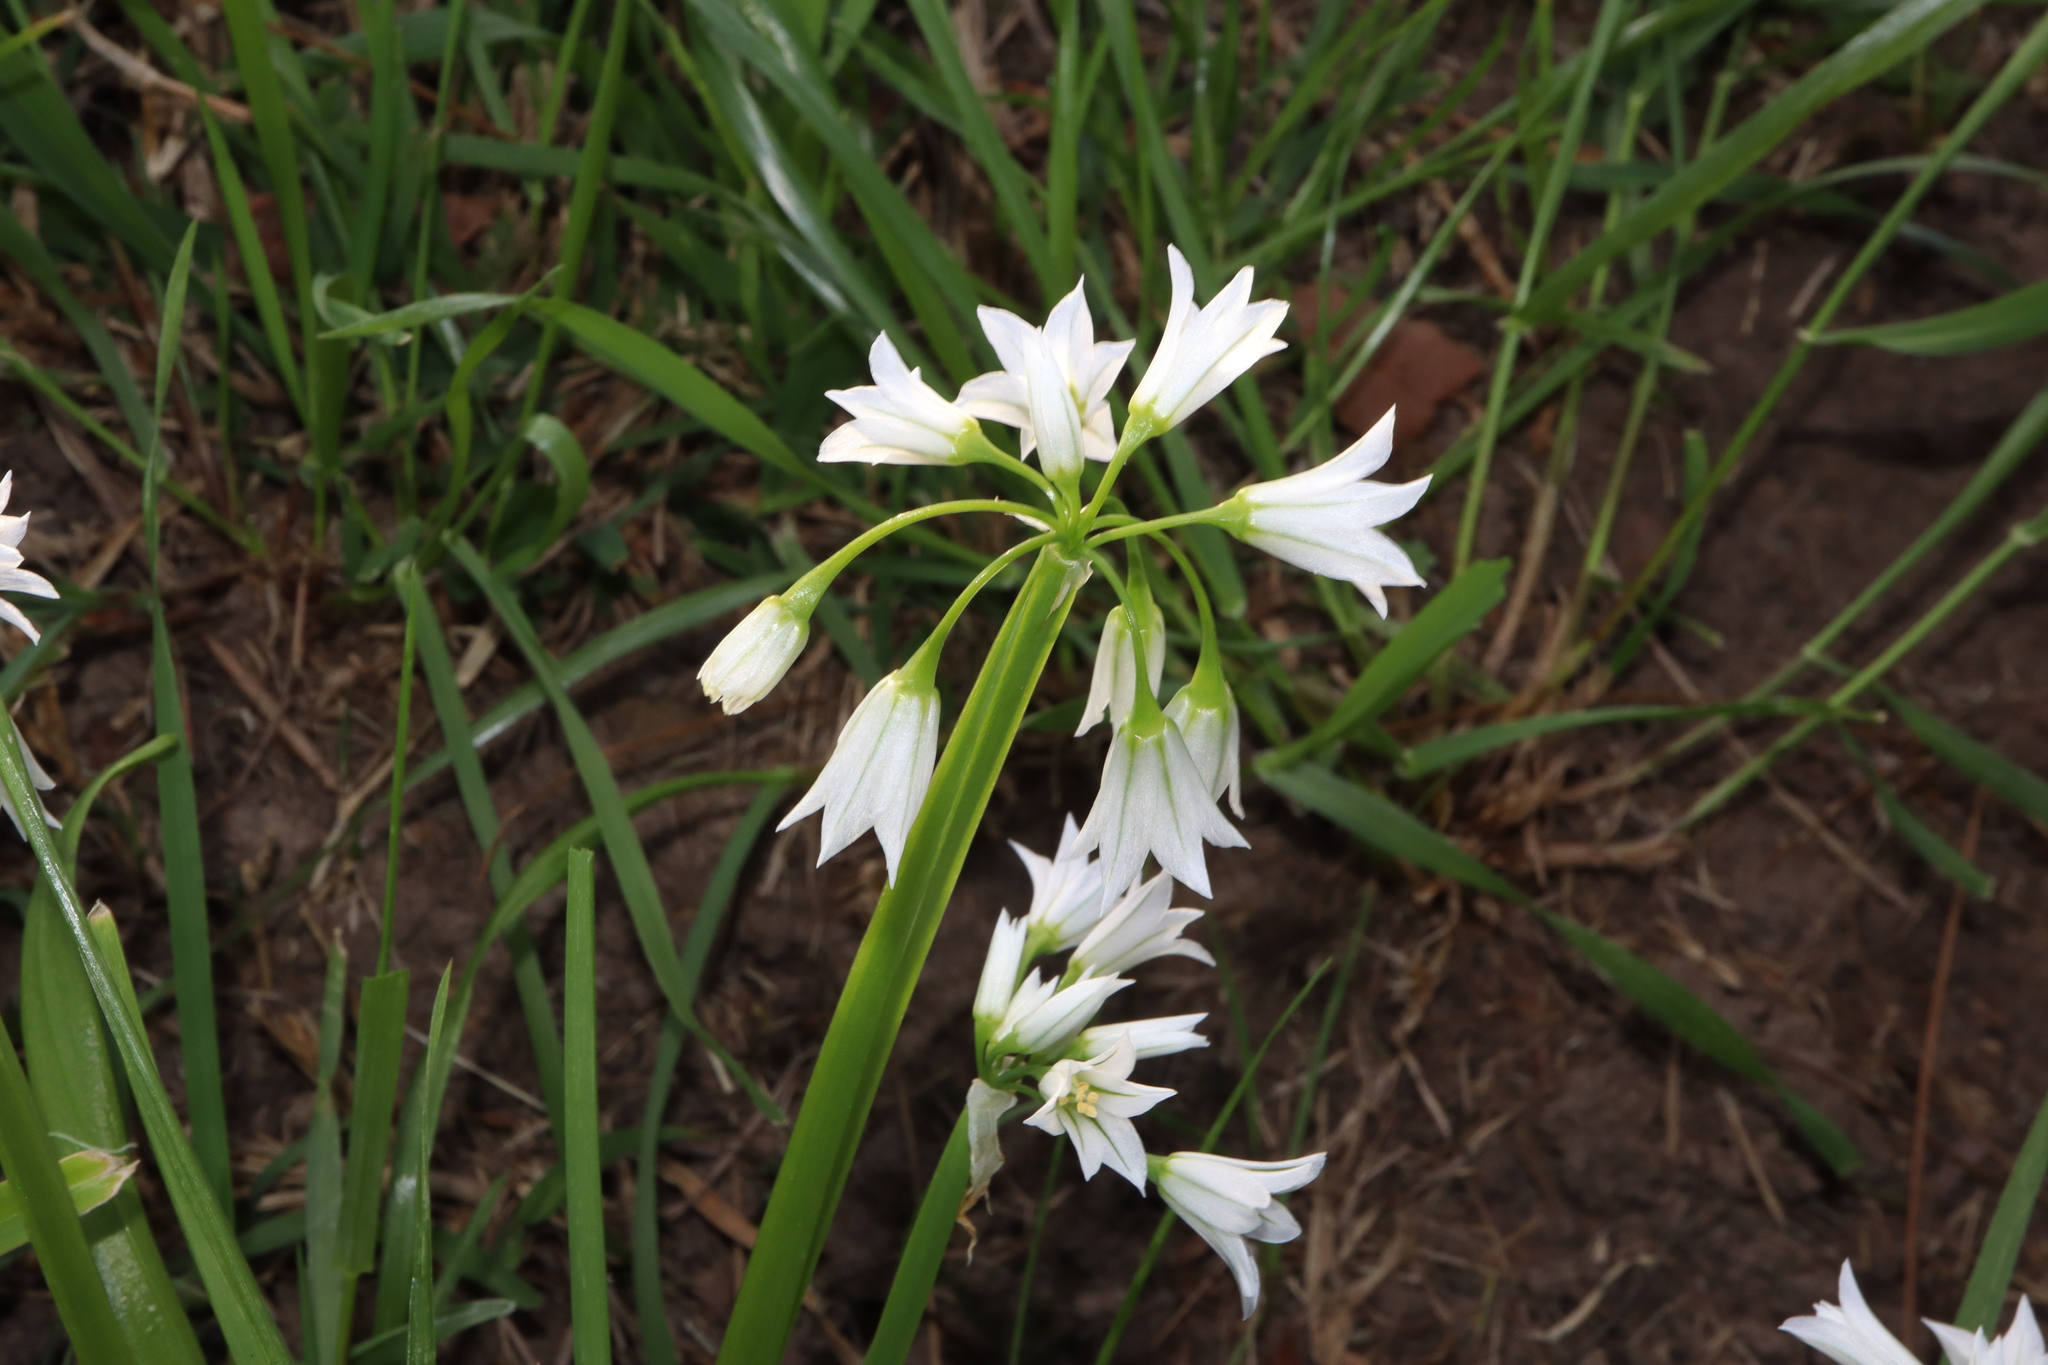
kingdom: Plantae
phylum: Tracheophyta
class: Liliopsida
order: Asparagales
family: Amaryllidaceae
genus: Allium
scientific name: Allium triquetrum
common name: Three-cornered garlic
